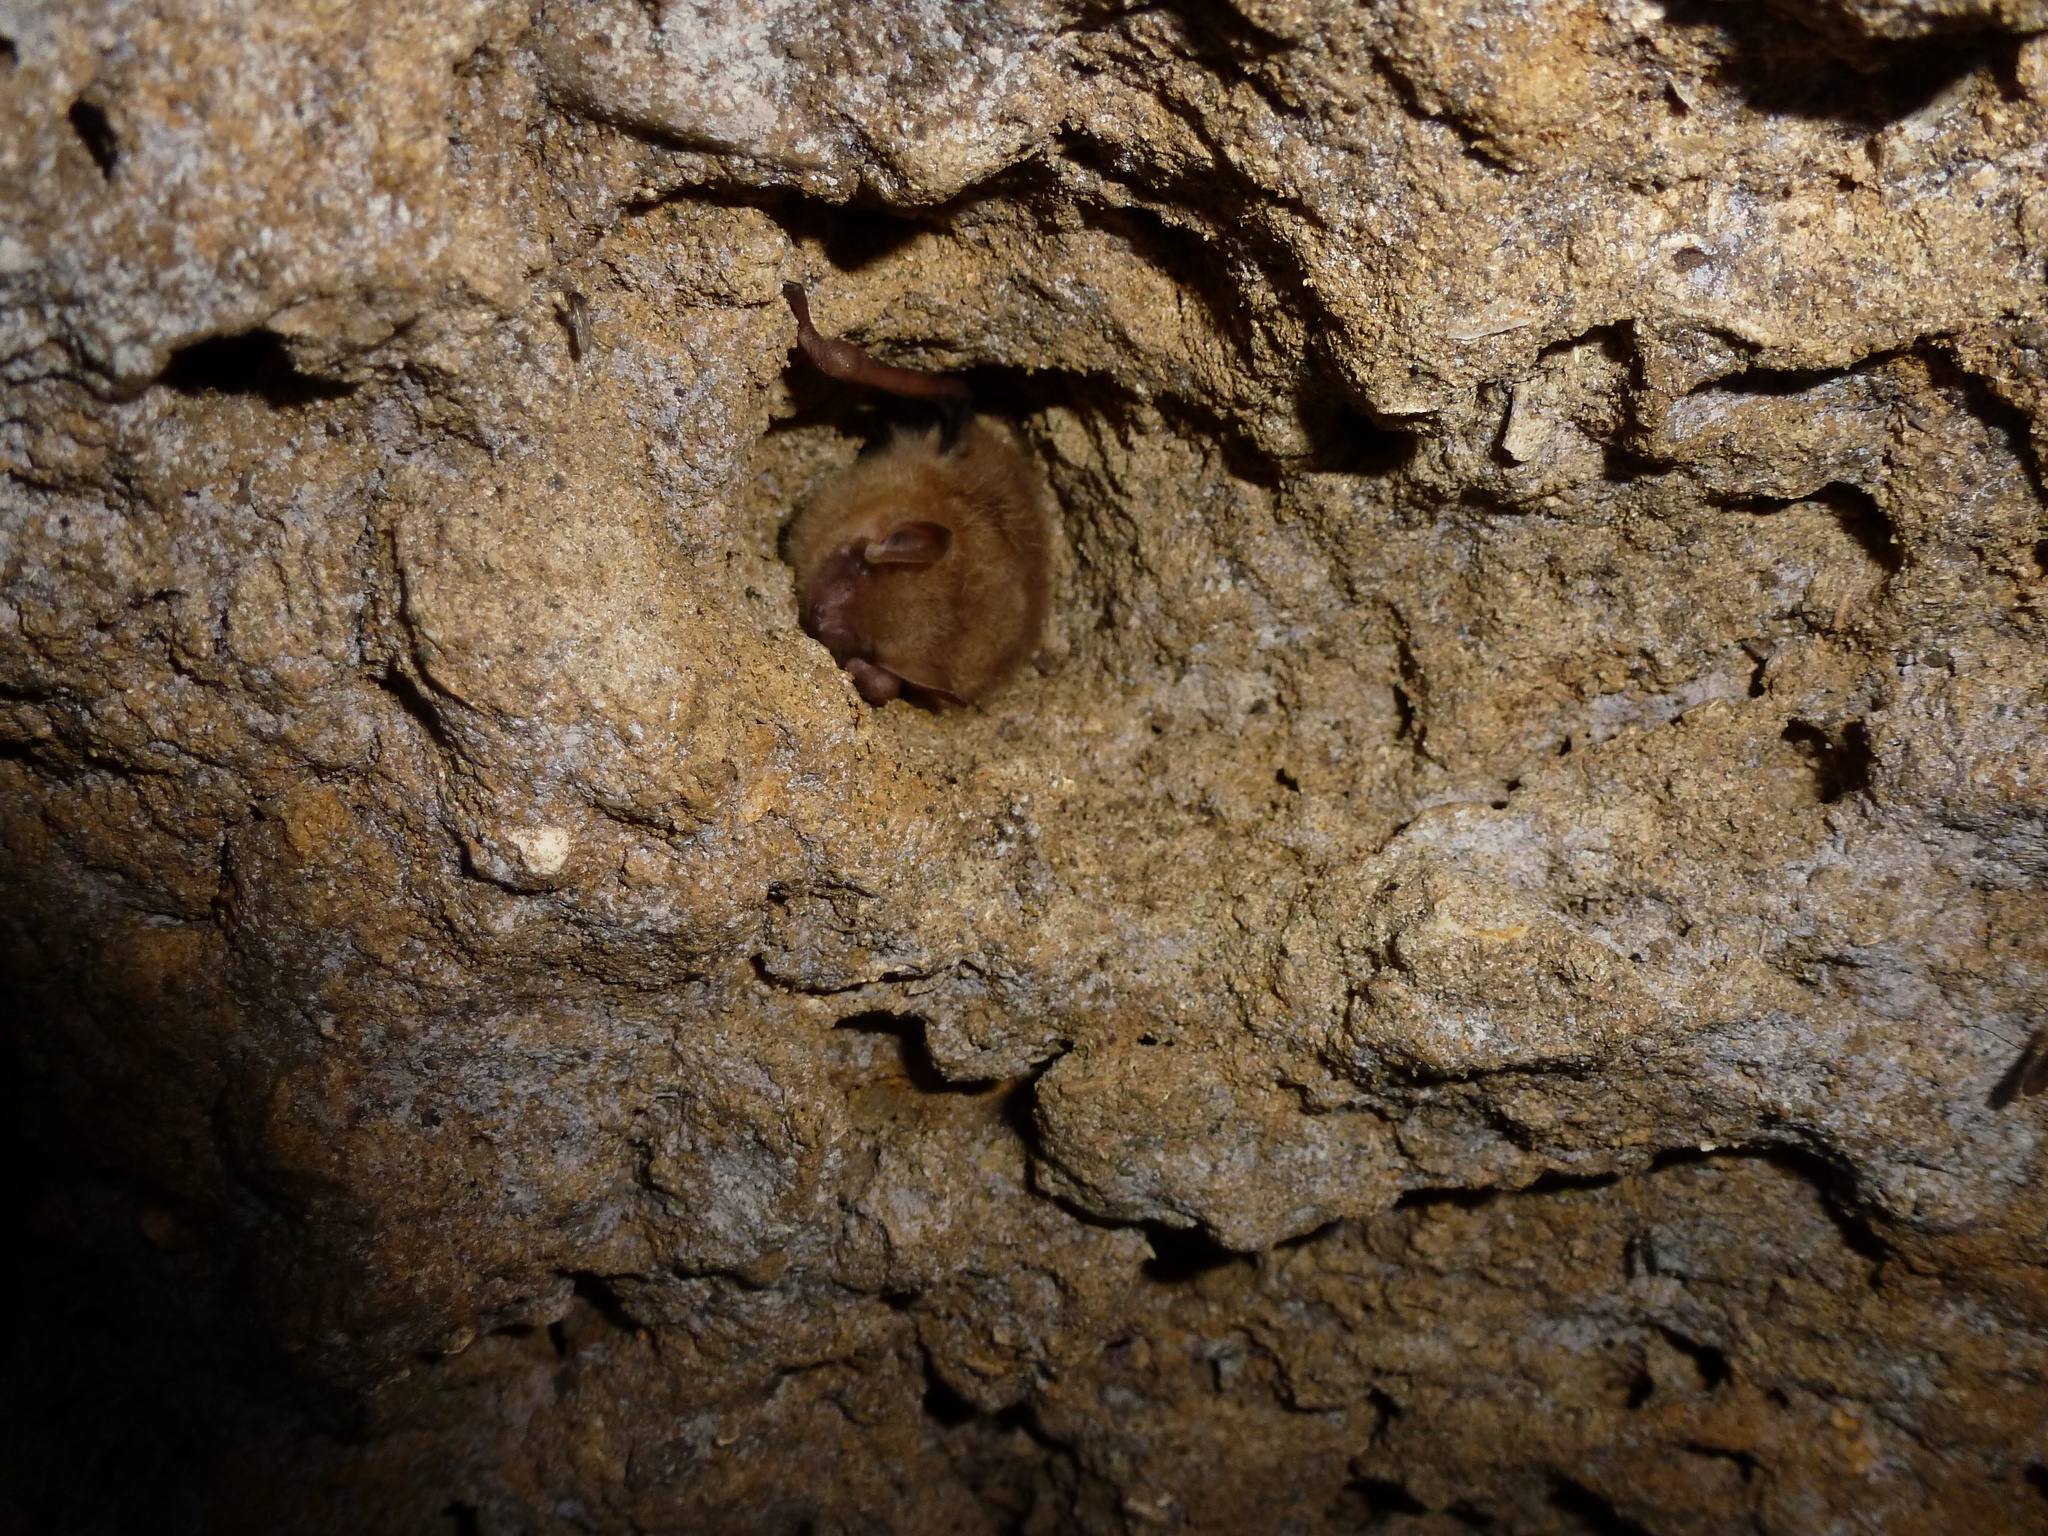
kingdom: Animalia
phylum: Chordata
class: Mammalia
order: Chiroptera
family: Vespertilionidae
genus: Perimyotis
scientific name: Perimyotis subflavus
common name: Eastern pipistrelle
